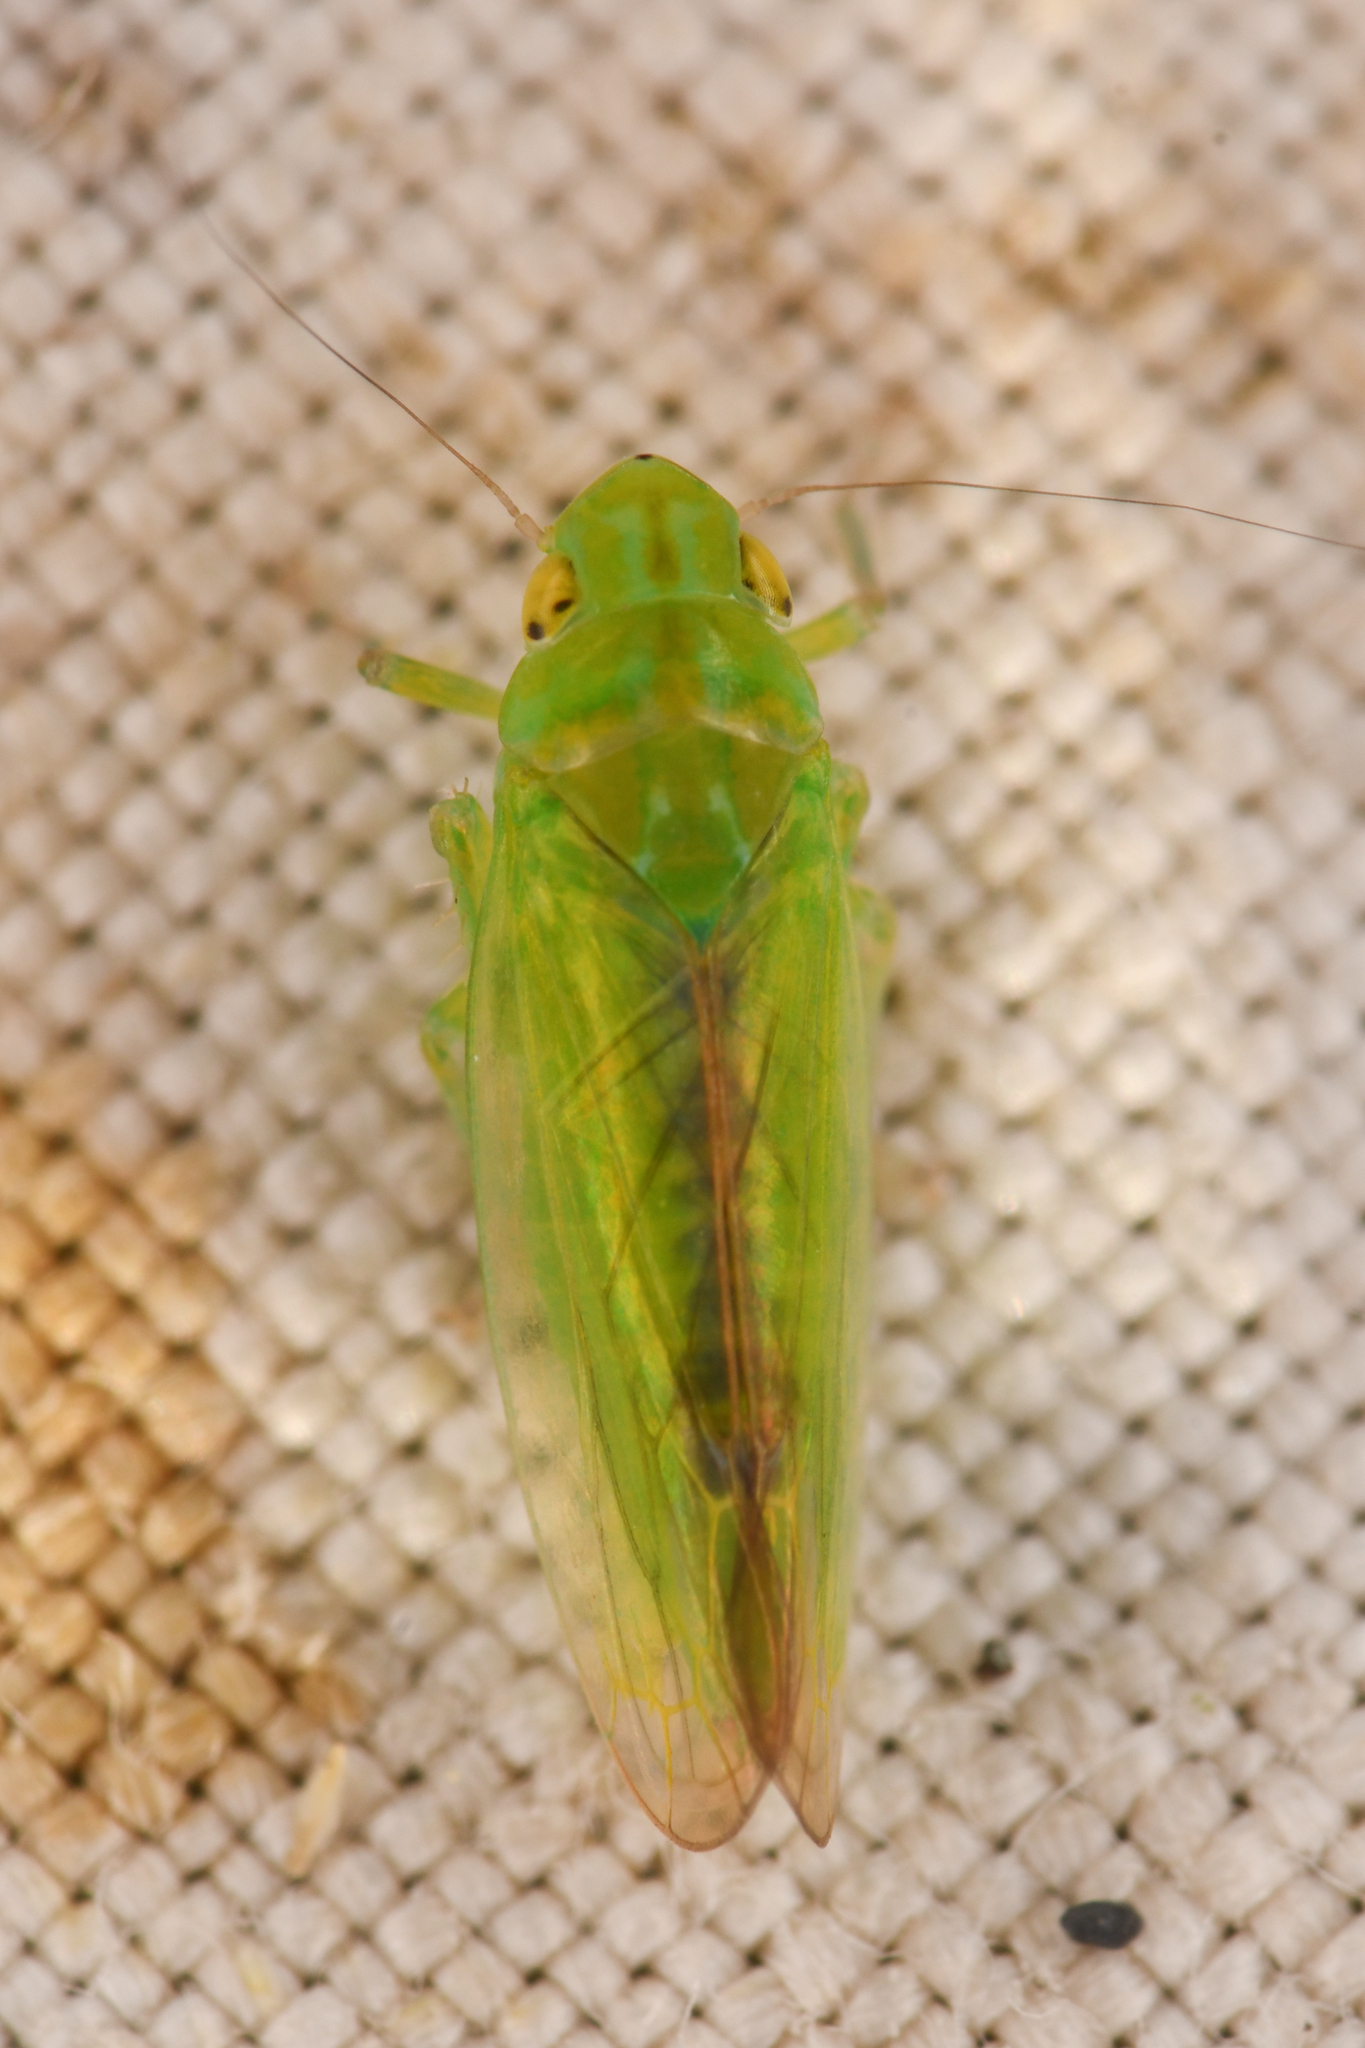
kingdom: Animalia
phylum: Arthropoda
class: Insecta
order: Hemiptera
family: Cicadellidae
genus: Neocoelidiana
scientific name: Neocoelidiana obscura
